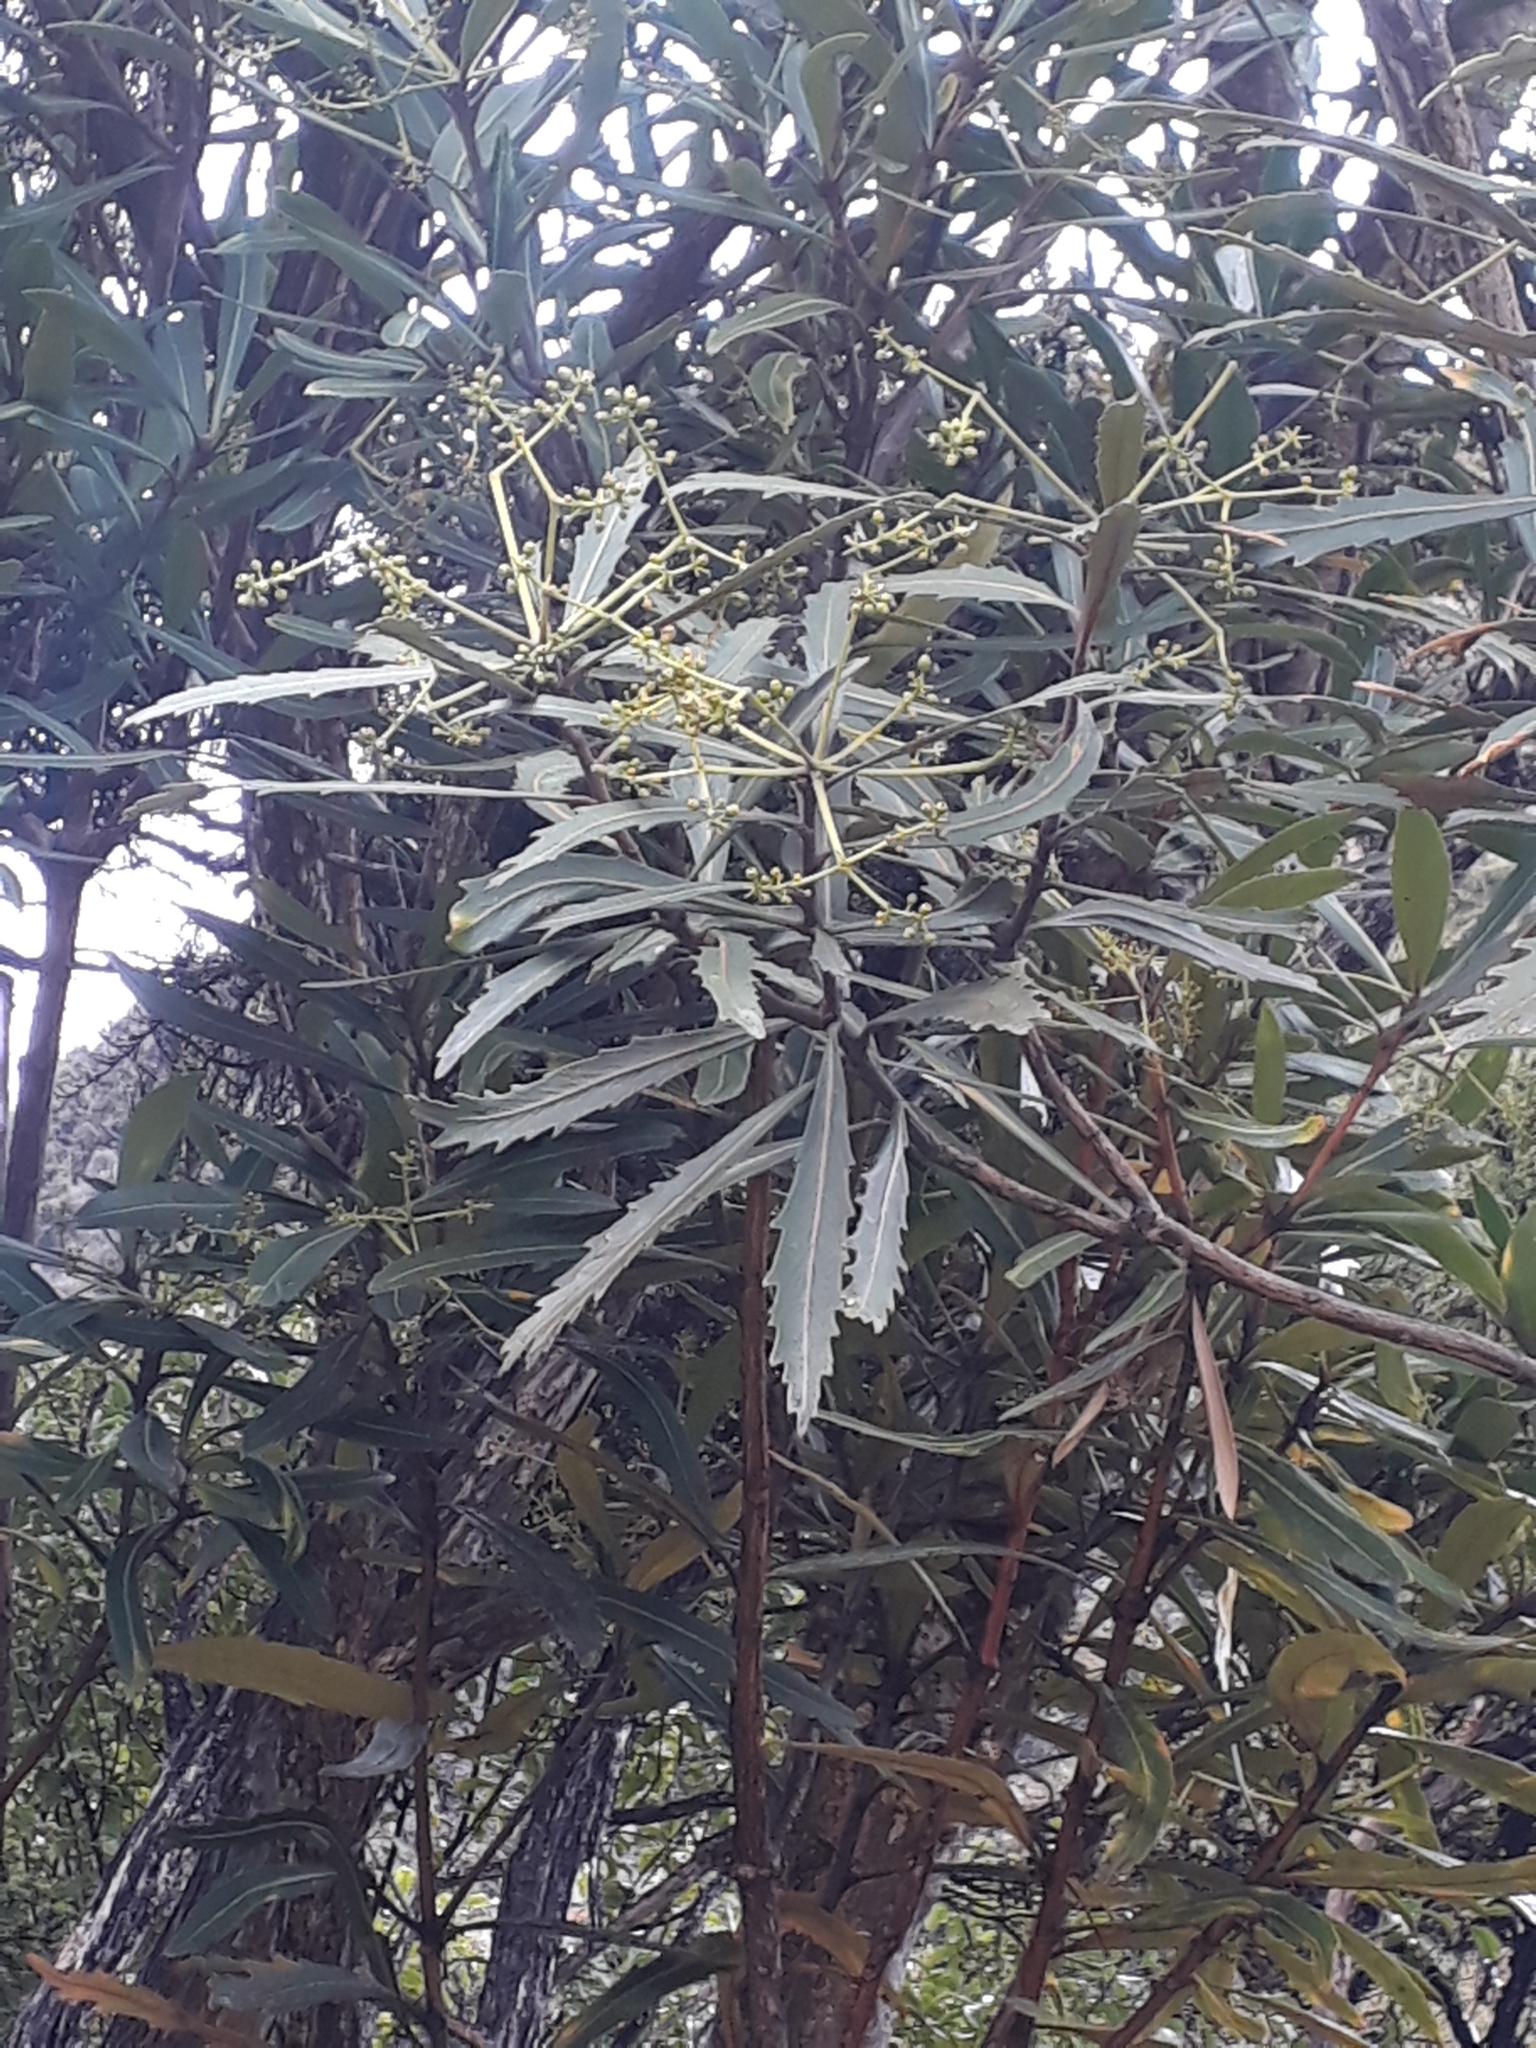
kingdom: Plantae
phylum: Tracheophyta
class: Magnoliopsida
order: Apiales
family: Araliaceae
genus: Pseudopanax
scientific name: Pseudopanax crassifolius
